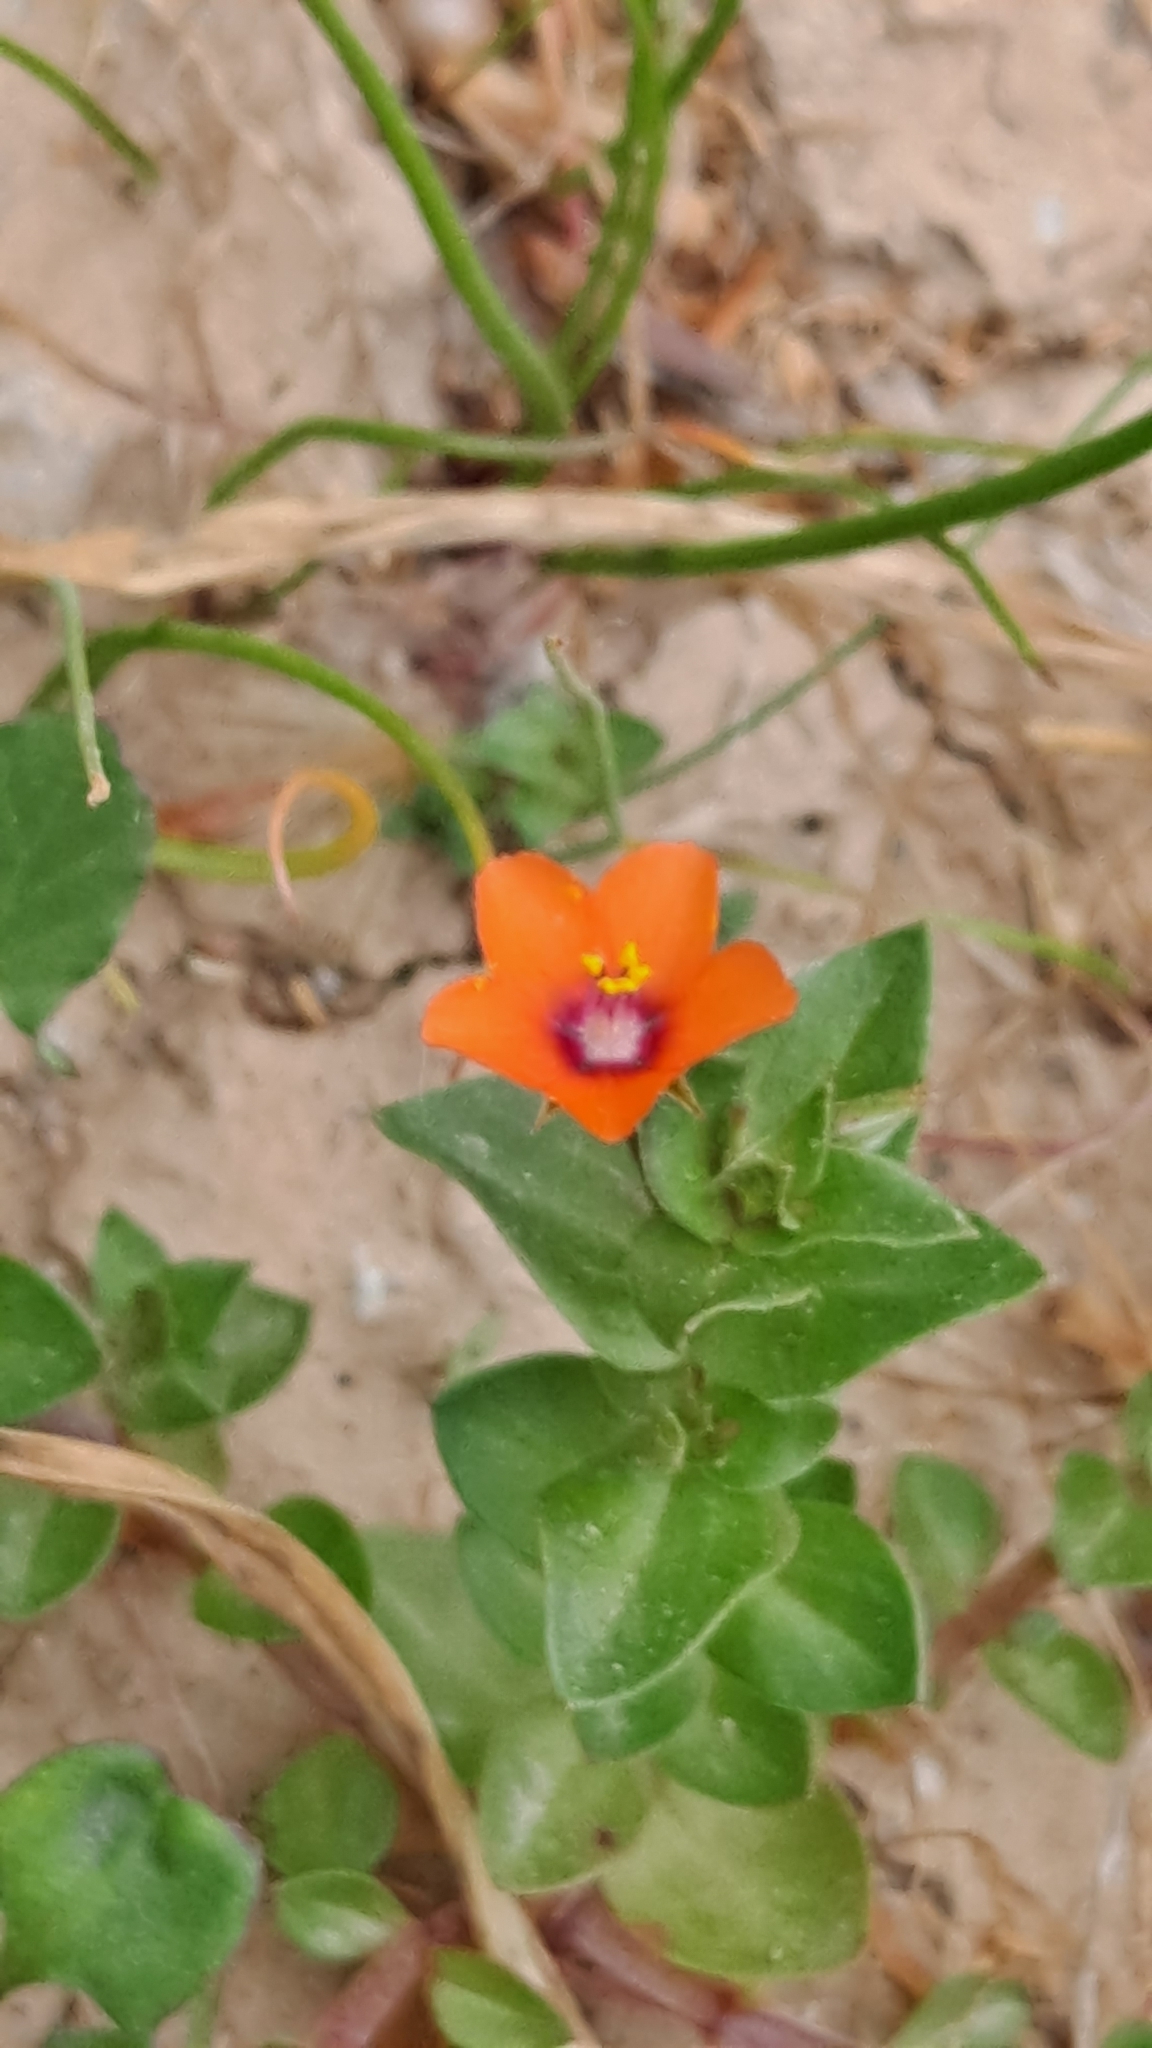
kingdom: Plantae
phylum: Tracheophyta
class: Magnoliopsida
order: Ericales
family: Primulaceae
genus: Lysimachia
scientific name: Lysimachia arvensis
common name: Scarlet pimpernel
